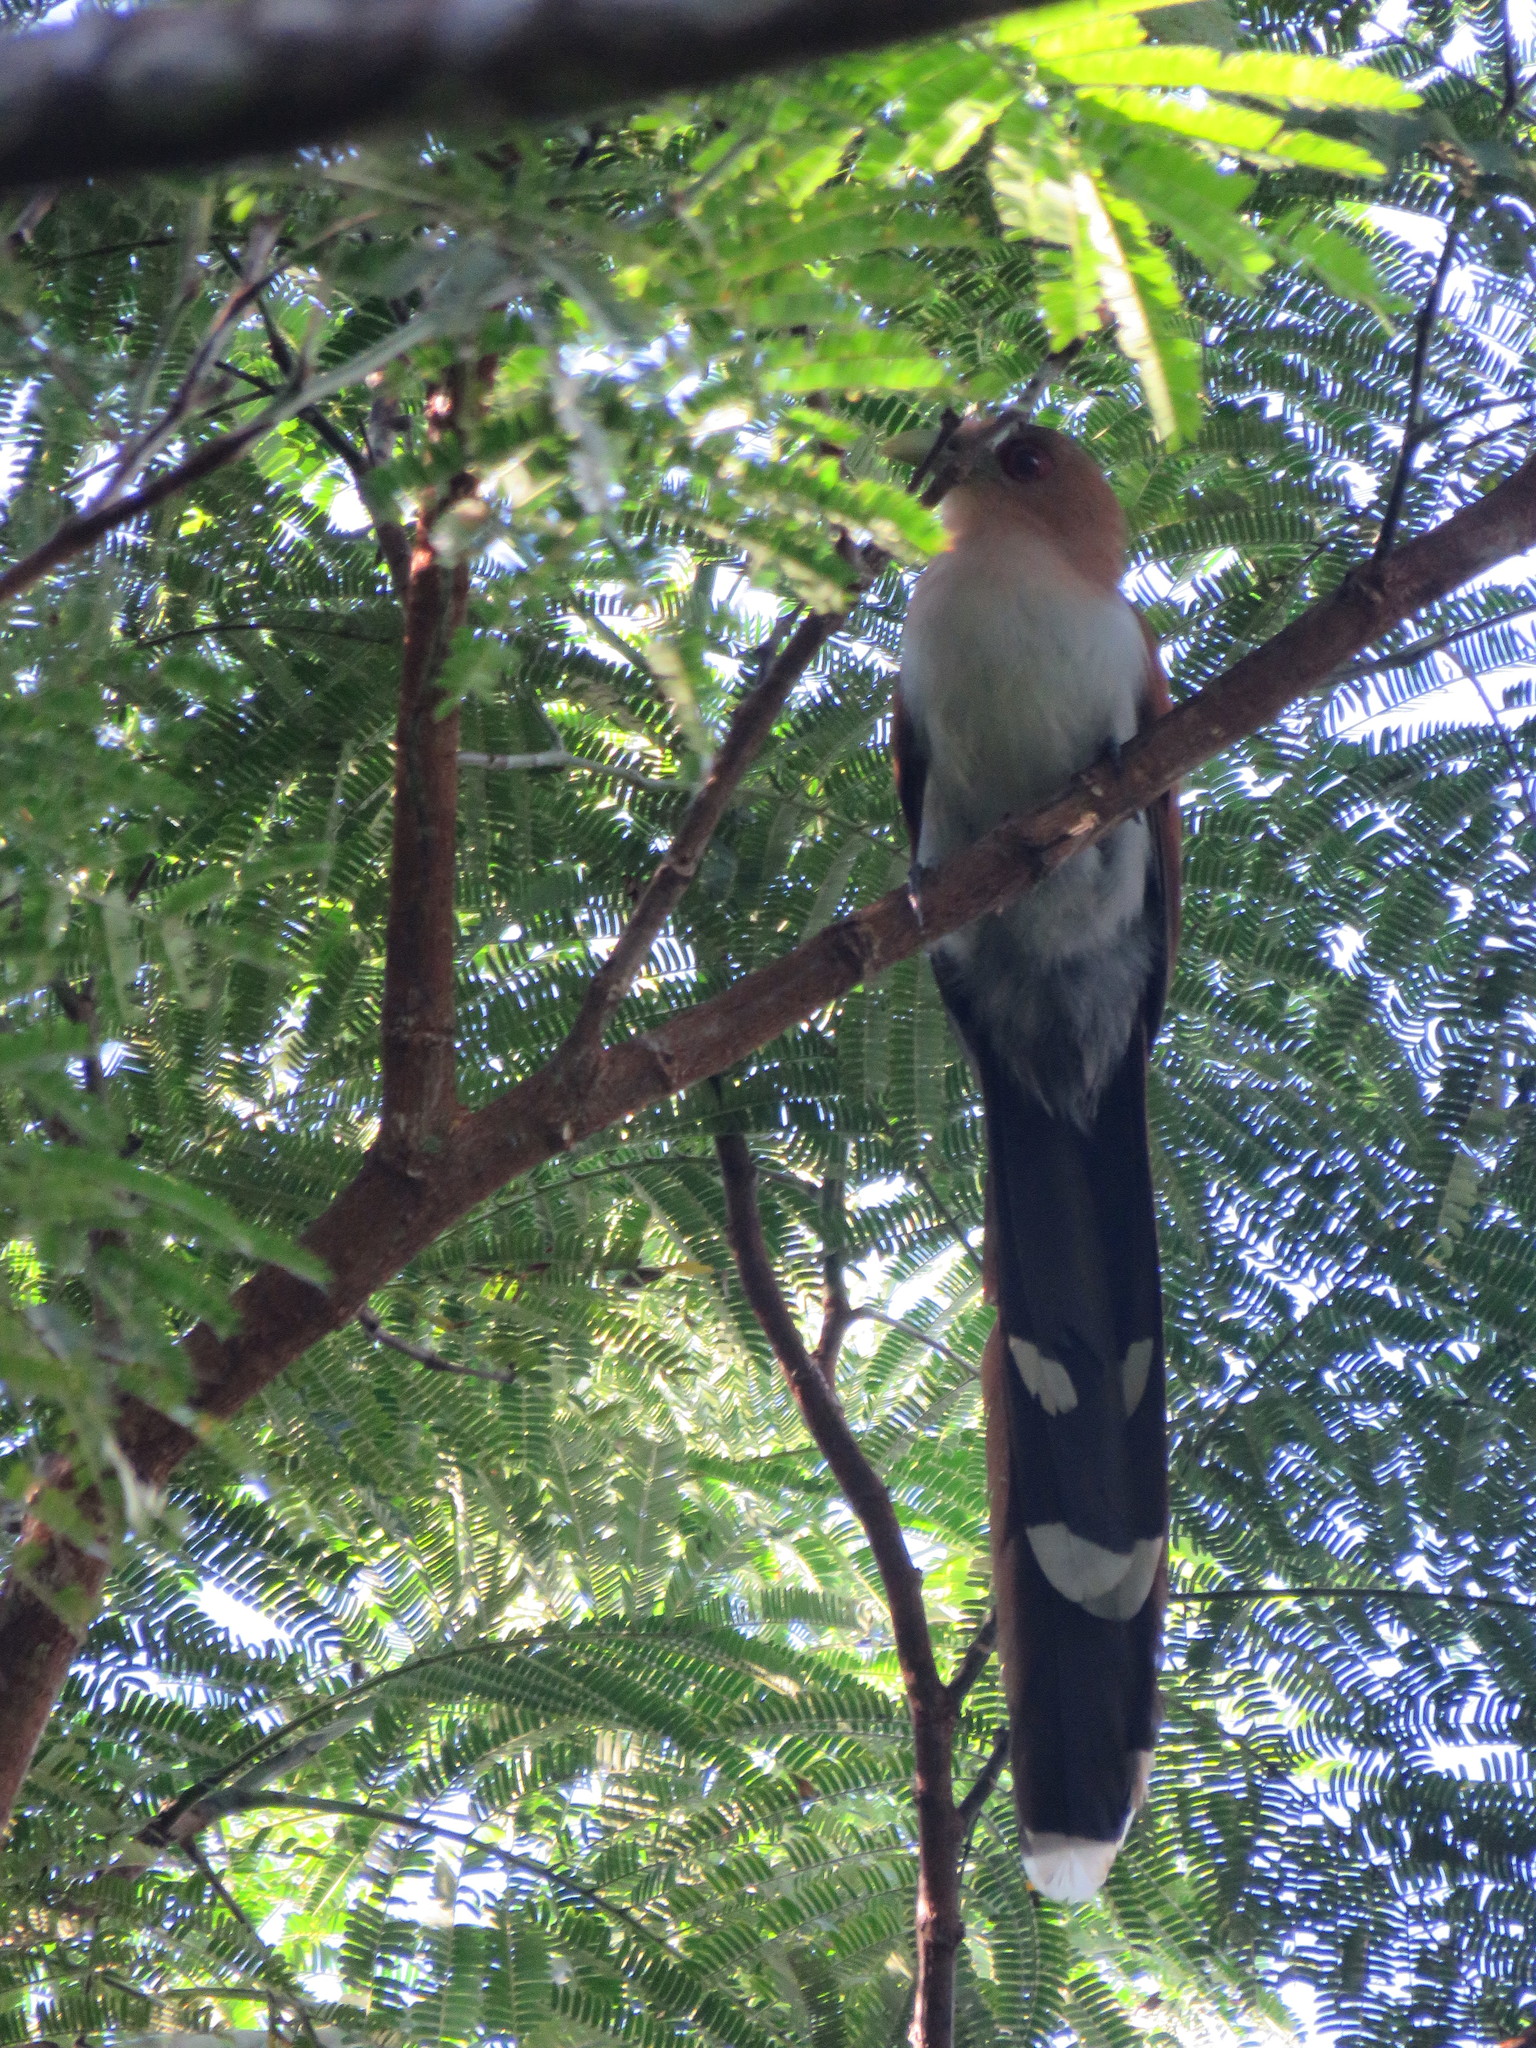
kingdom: Animalia
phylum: Chordata
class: Aves
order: Cuculiformes
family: Cuculidae
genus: Piaya
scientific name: Piaya cayana
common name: Squirrel cuckoo
